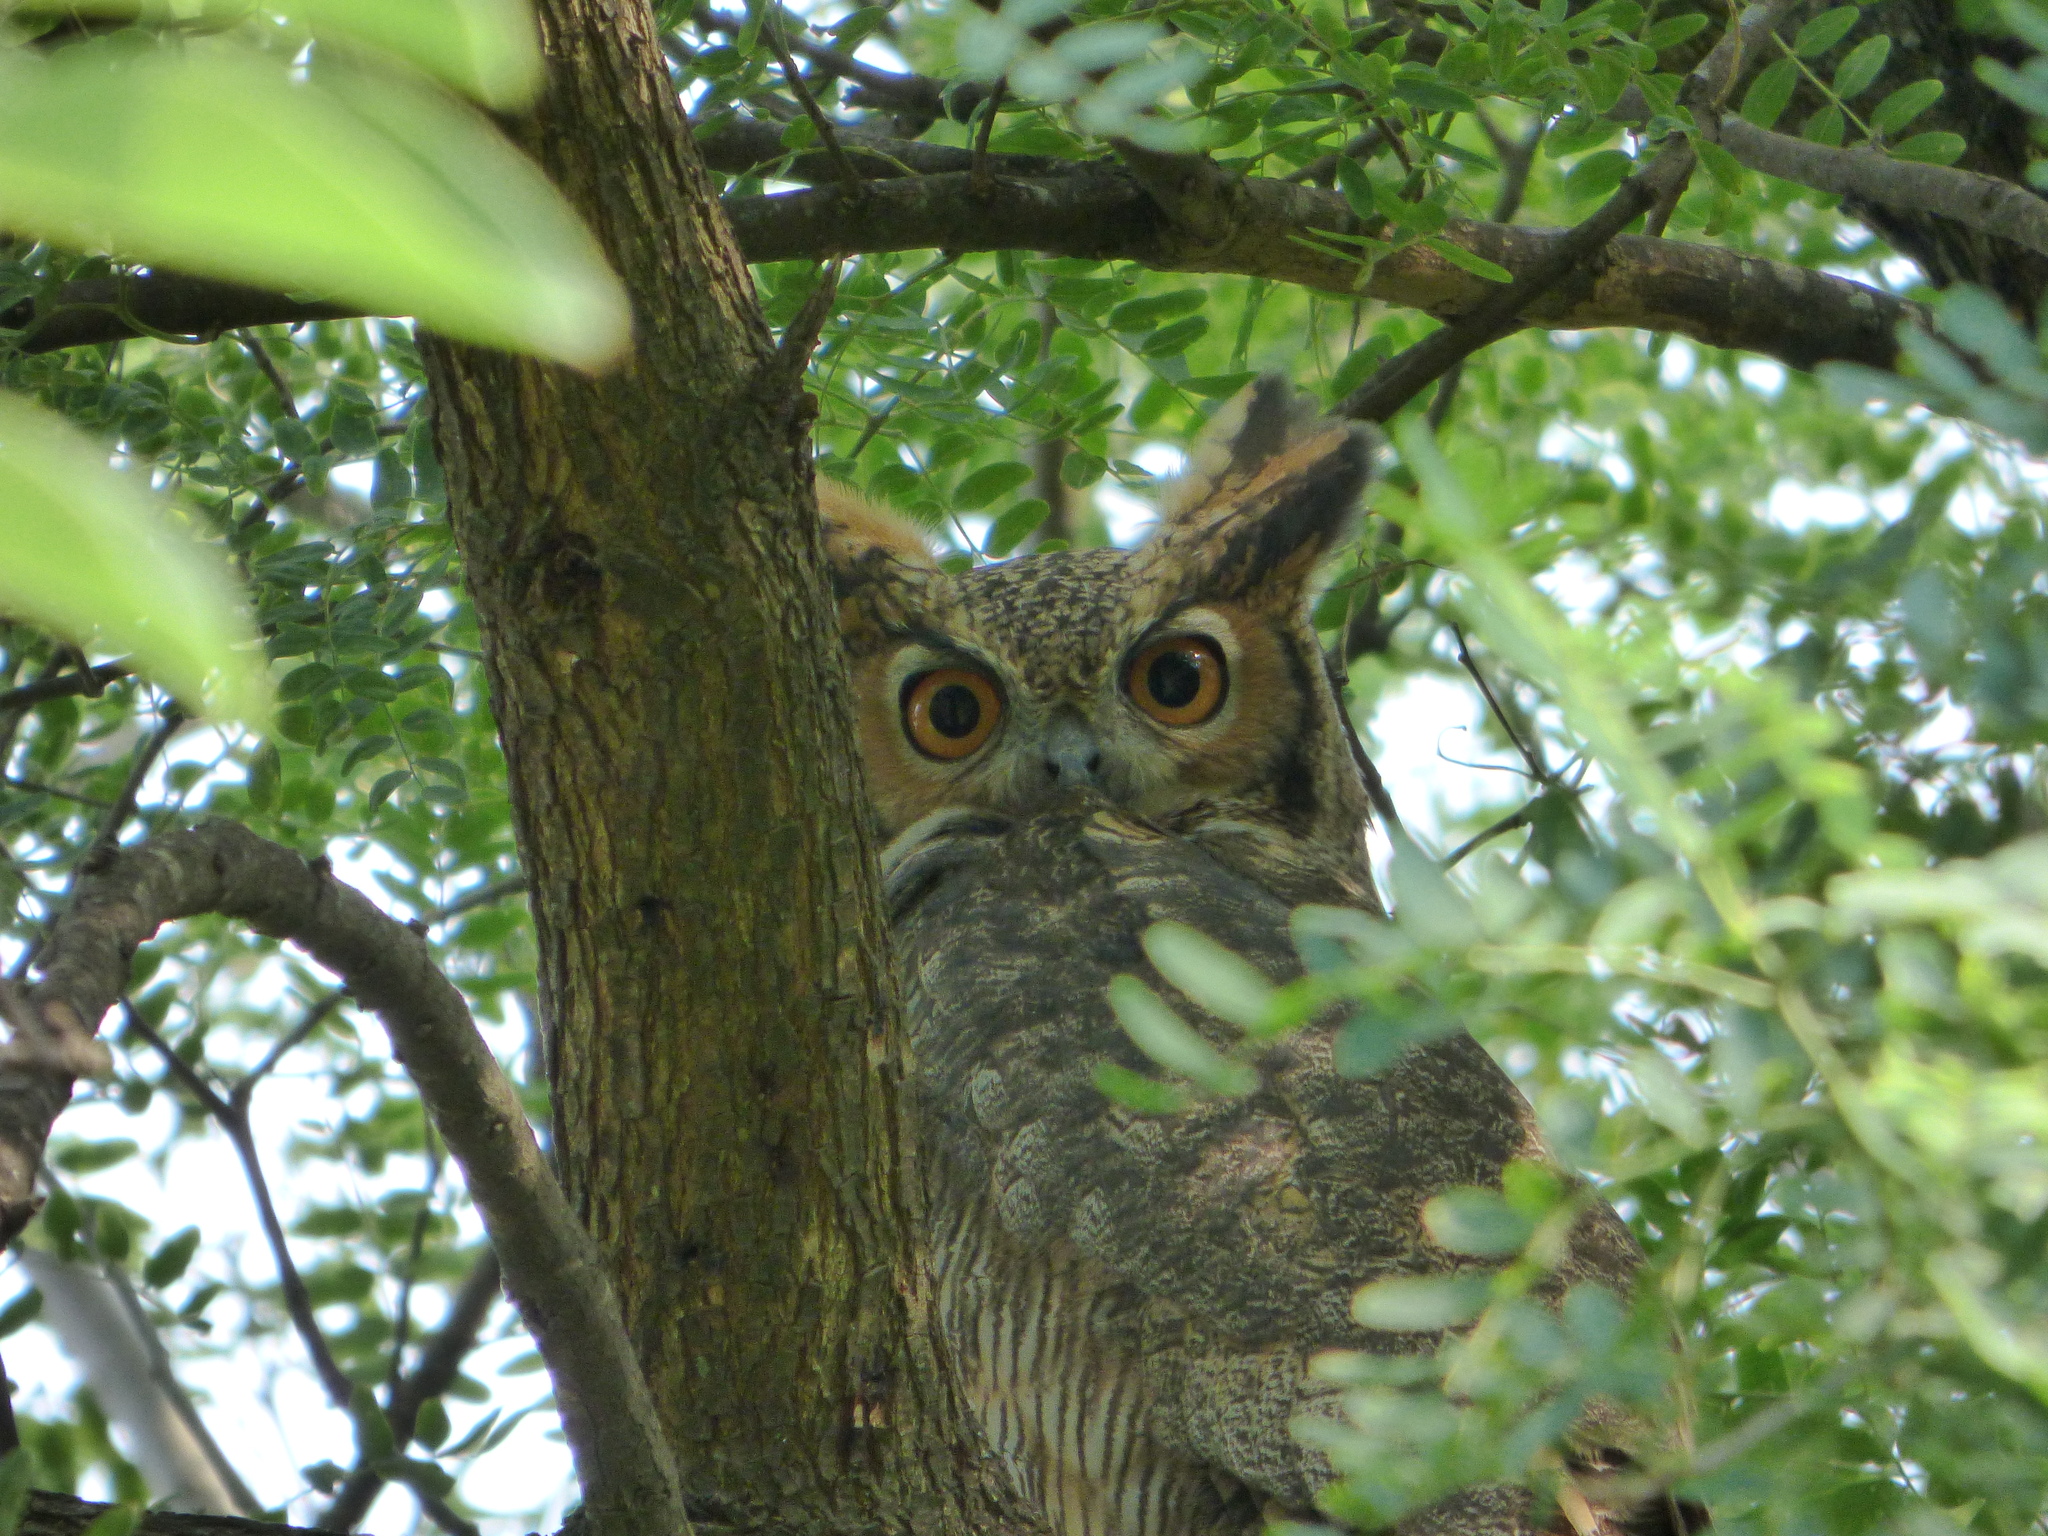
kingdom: Animalia
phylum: Chordata
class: Aves
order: Strigiformes
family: Strigidae
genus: Bubo
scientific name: Bubo virginianus
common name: Great horned owl
